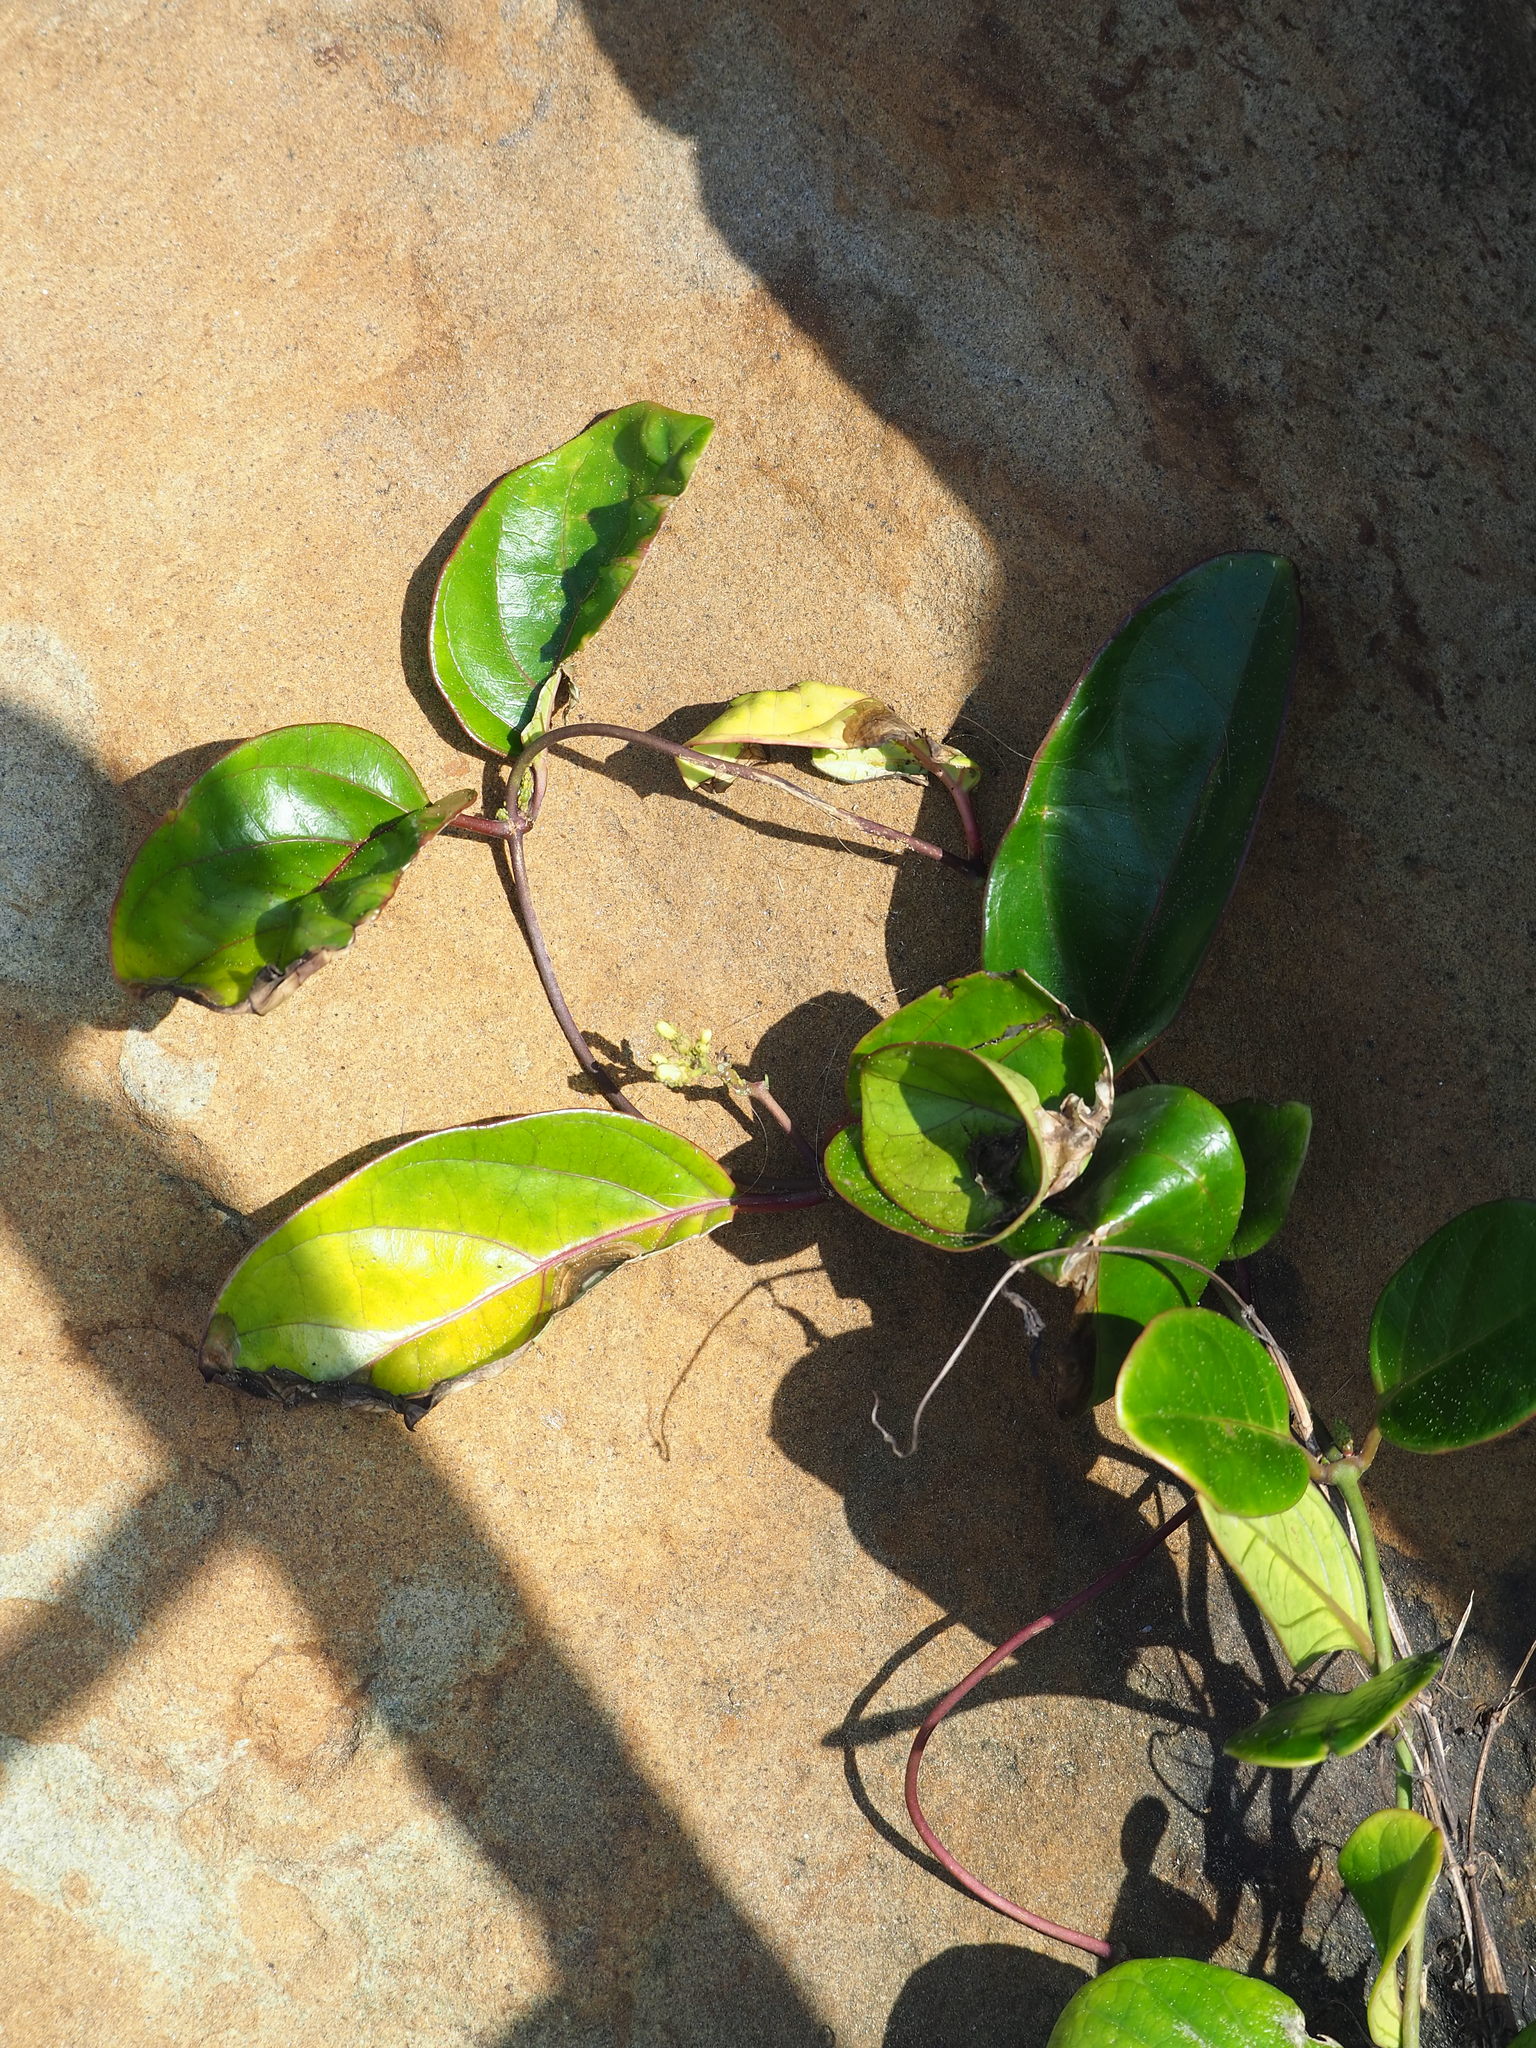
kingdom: Plantae
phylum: Tracheophyta
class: Magnoliopsida
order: Gentianales
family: Apocynaceae
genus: Parsonsia
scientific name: Parsonsia alboflavescens
